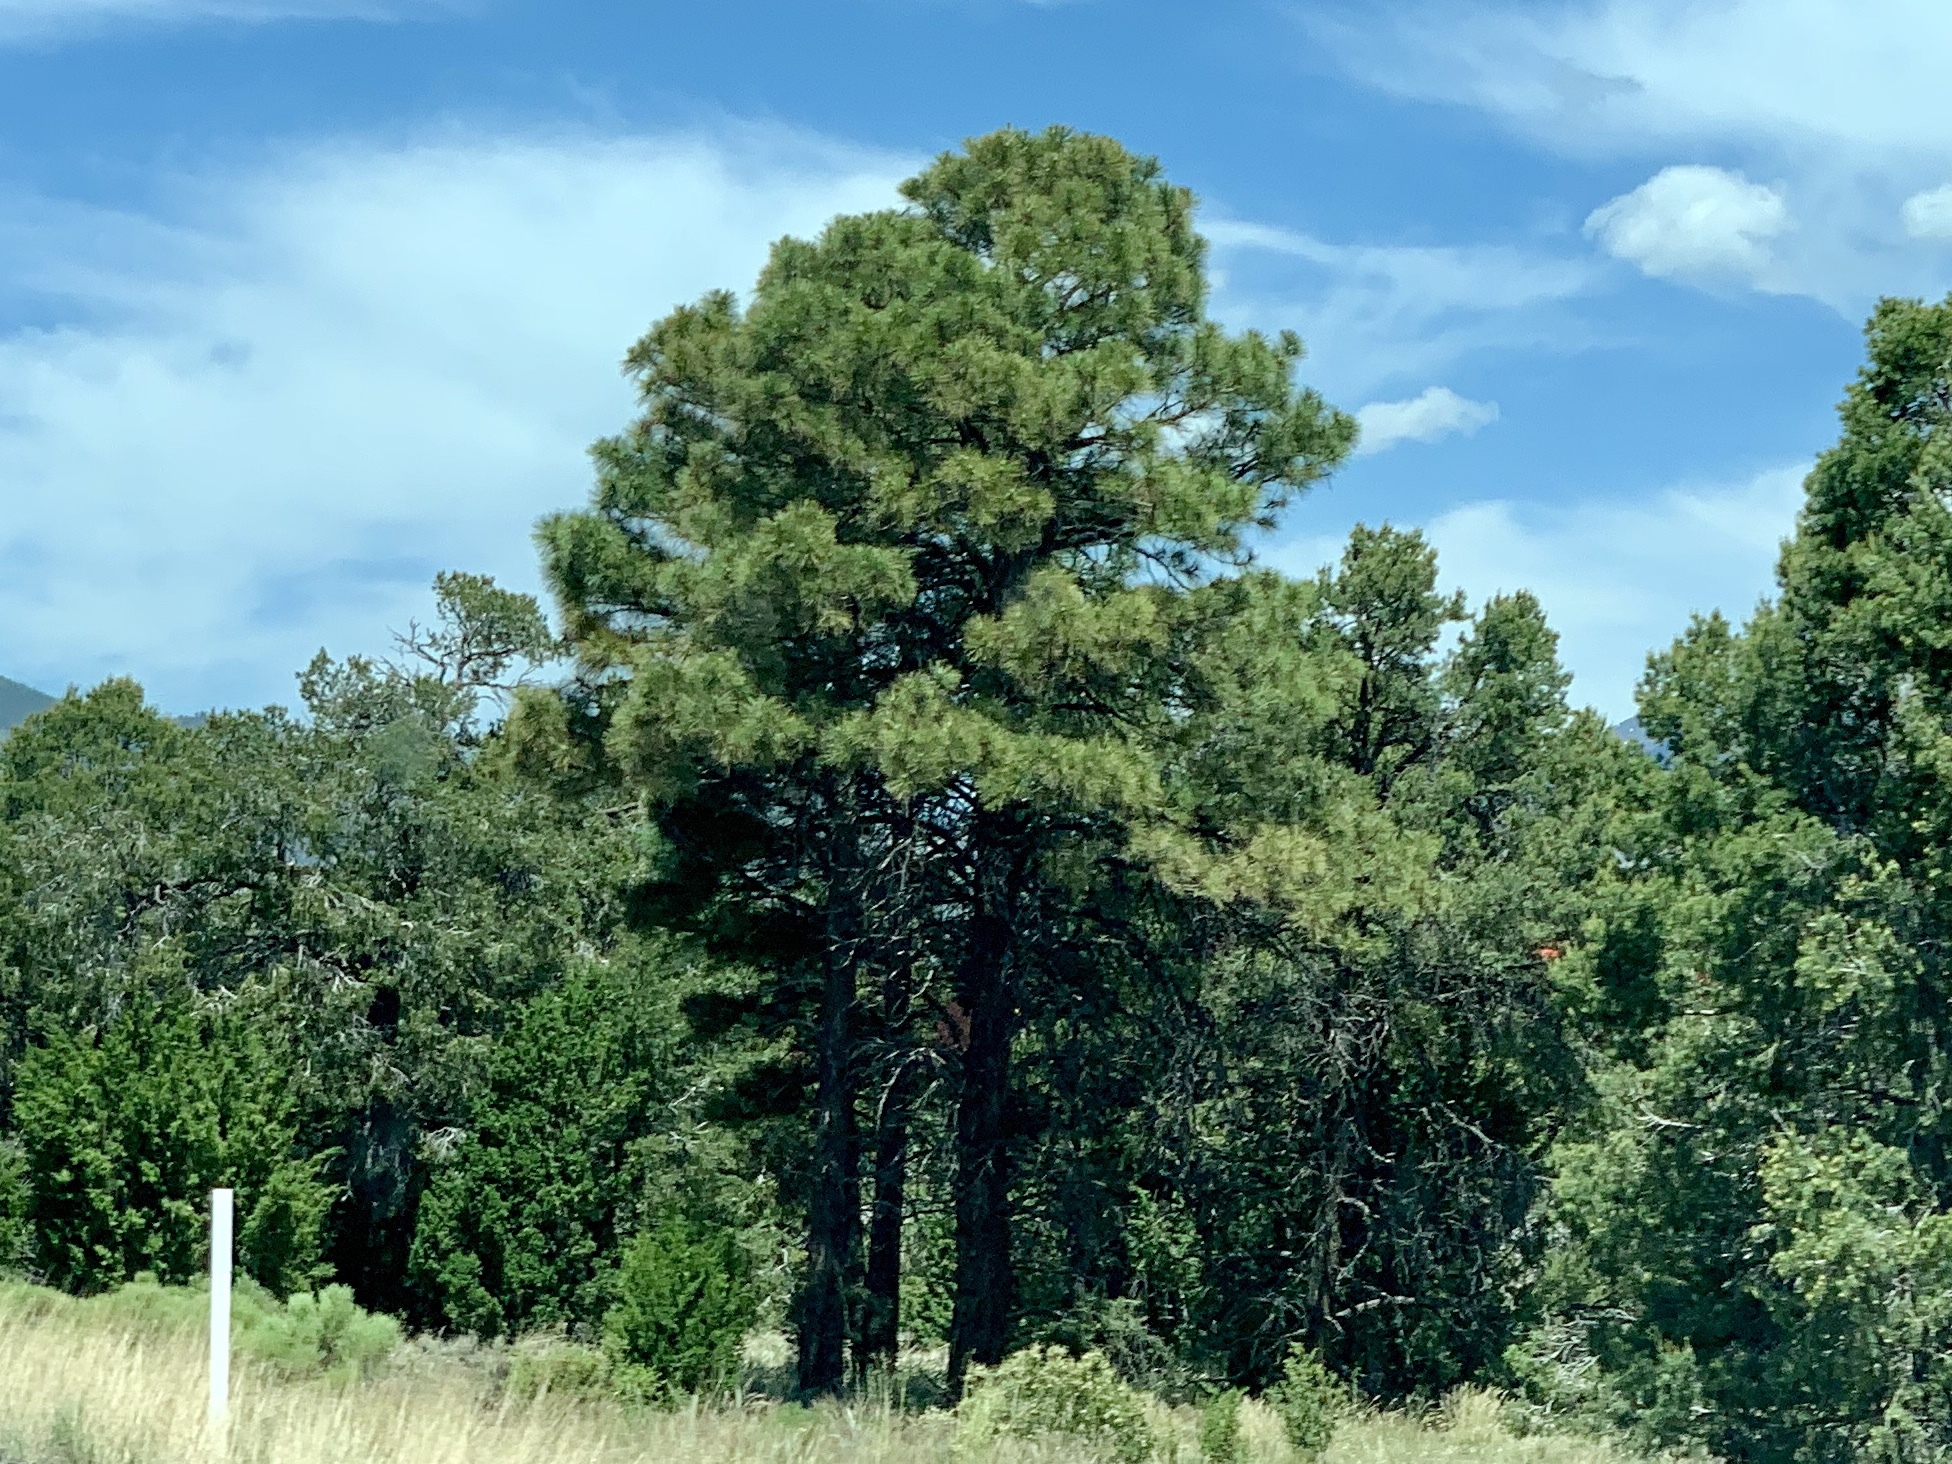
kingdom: Plantae
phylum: Tracheophyta
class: Pinopsida
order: Pinales
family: Pinaceae
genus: Pinus
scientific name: Pinus ponderosa
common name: Western yellow-pine
